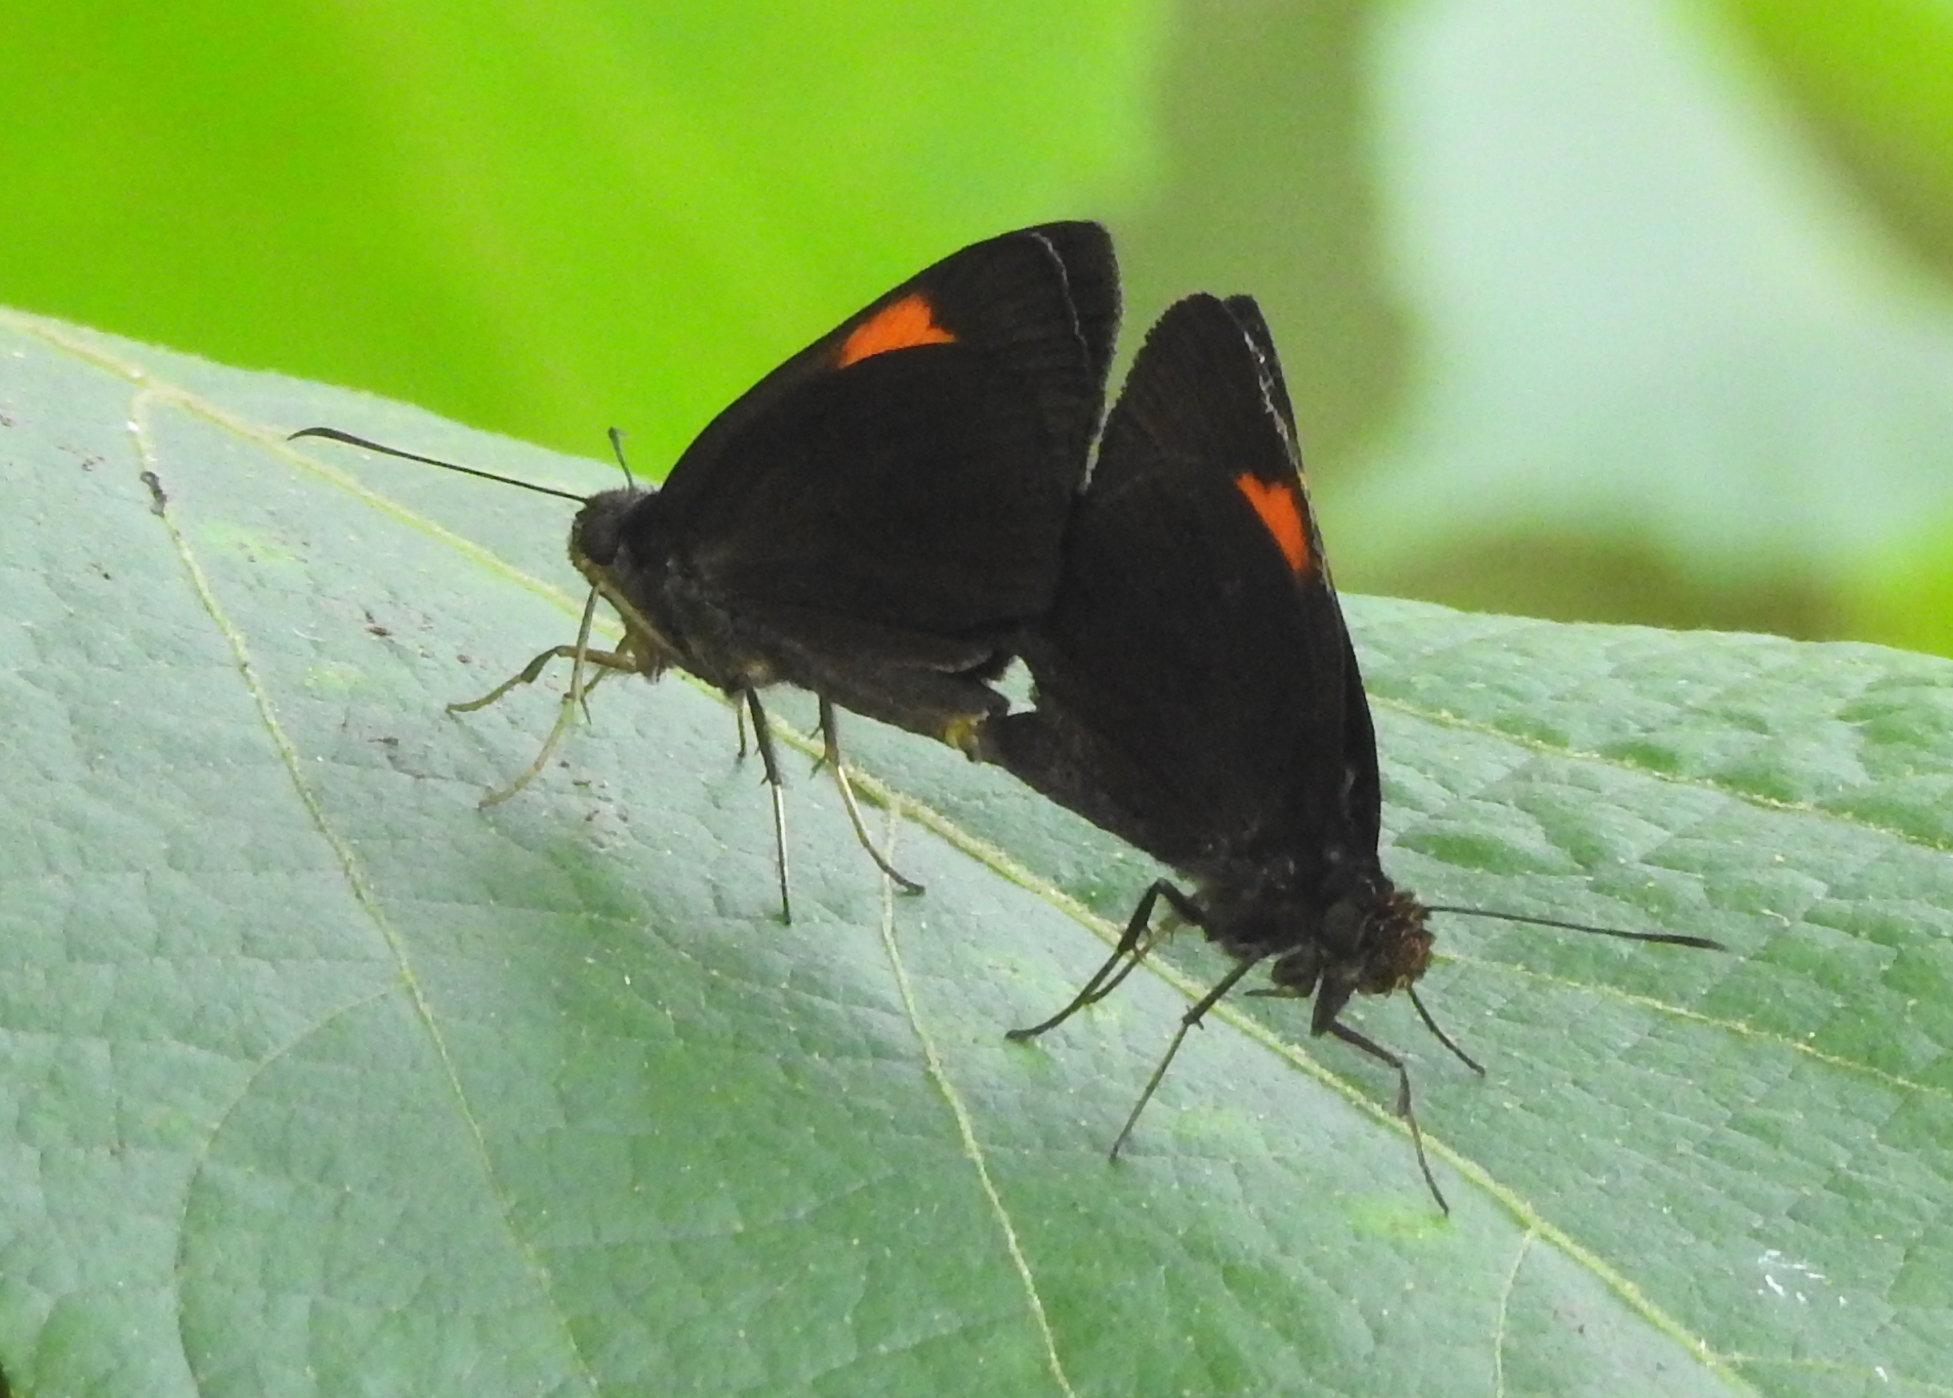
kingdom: Animalia
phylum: Arthropoda
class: Insecta
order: Lepidoptera
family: Hesperiidae
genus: Ancistroides
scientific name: Ancistroides armatus
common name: Red demon
